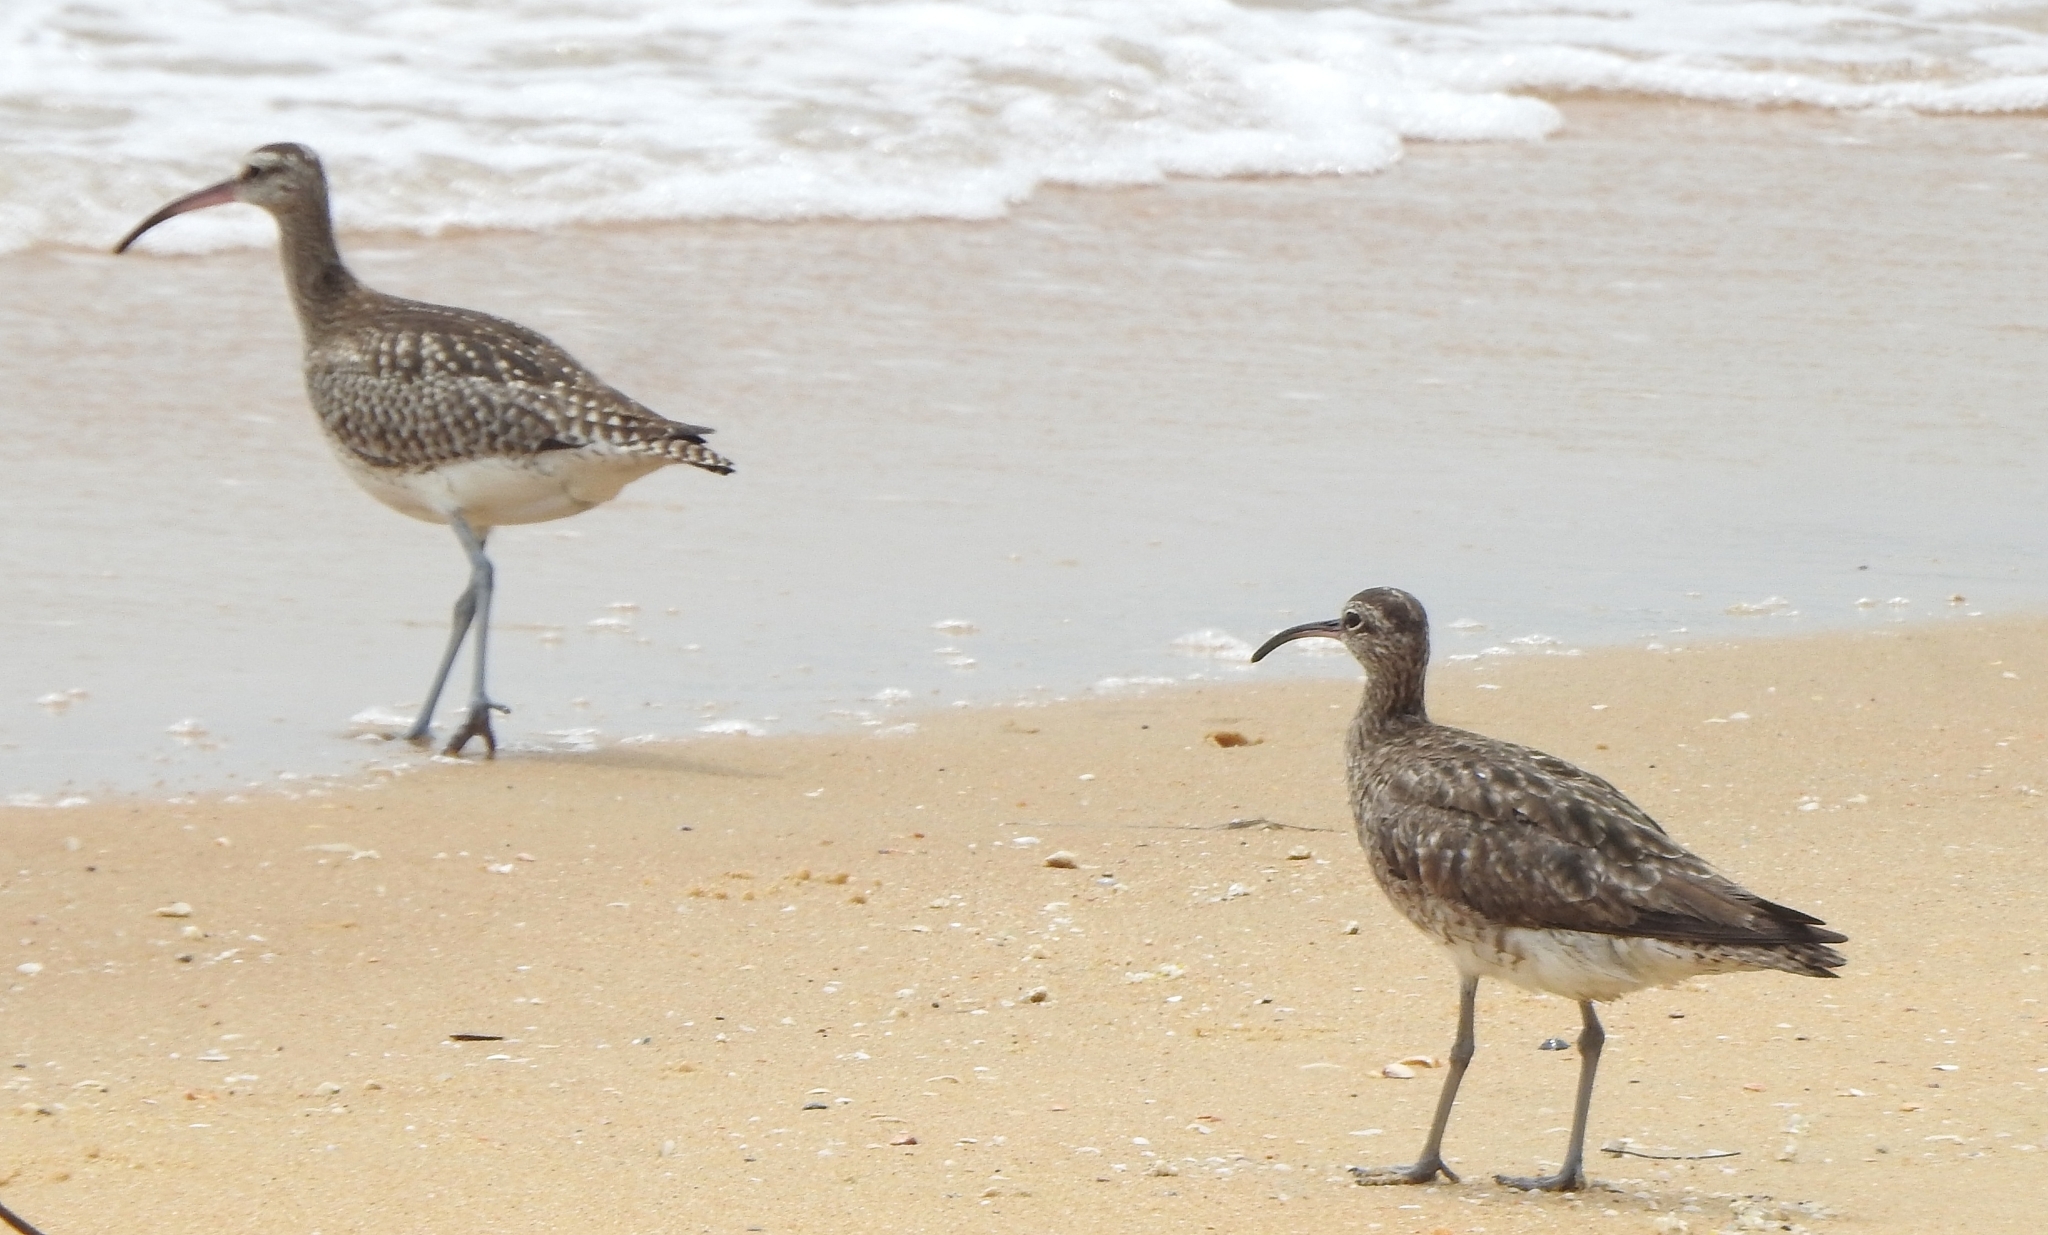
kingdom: Animalia
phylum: Chordata
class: Aves
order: Charadriiformes
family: Scolopacidae
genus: Numenius
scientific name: Numenius phaeopus
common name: Whimbrel
